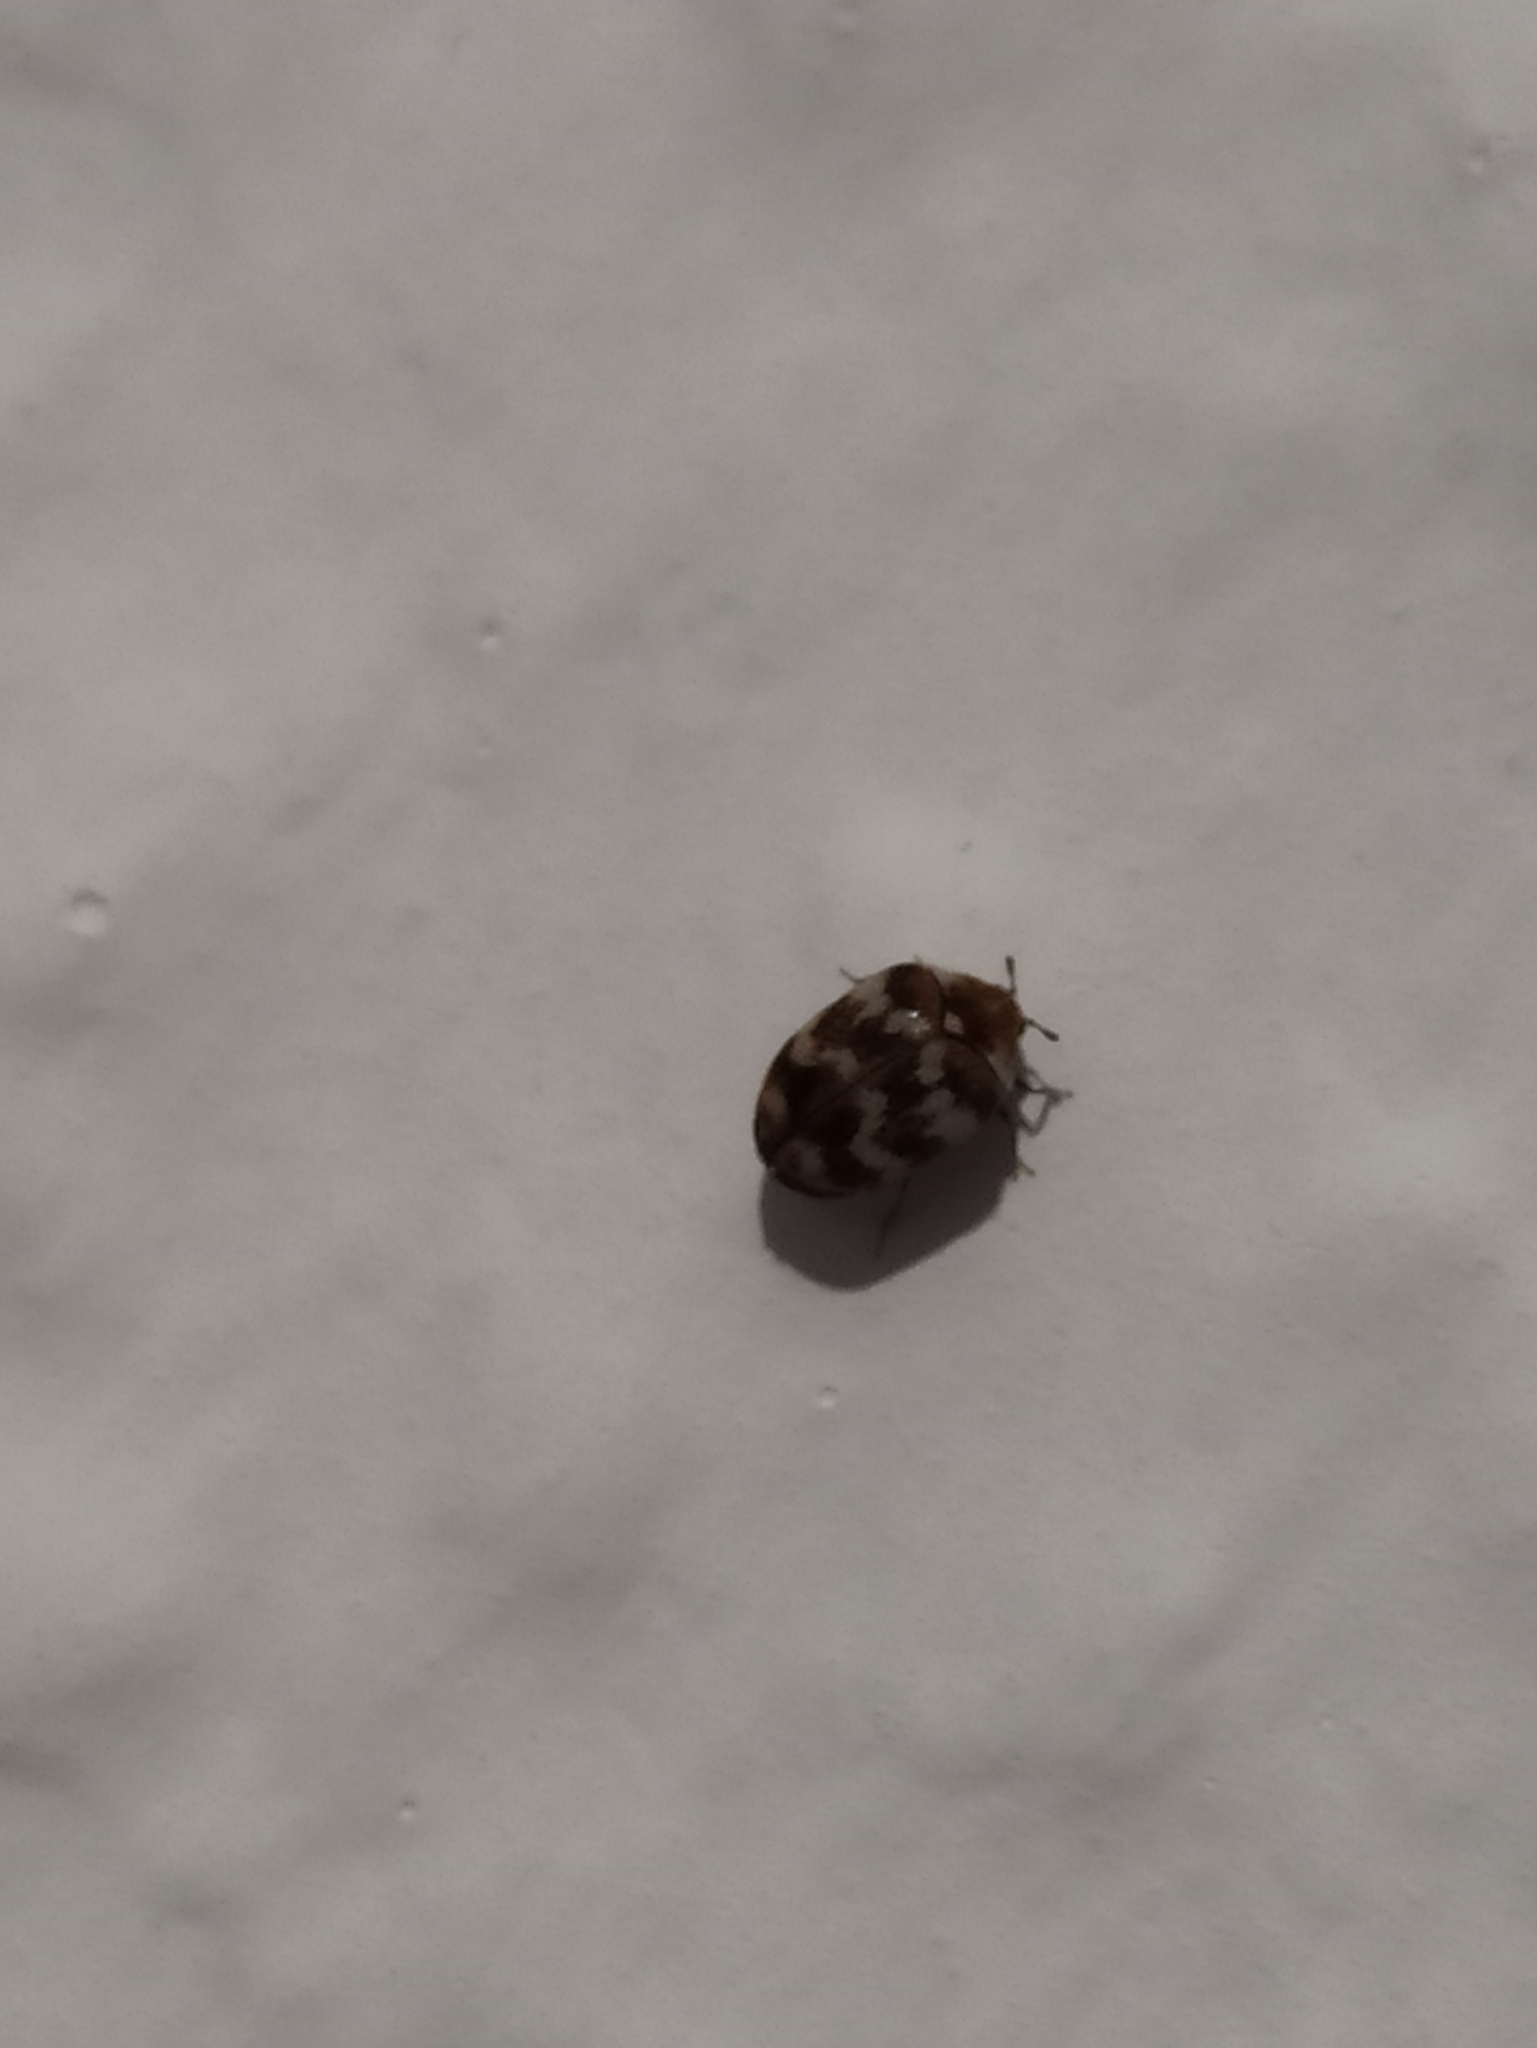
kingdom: Animalia
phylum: Arthropoda
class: Insecta
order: Coleoptera
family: Dermestidae
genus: Anthrenus
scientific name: Anthrenus verbasci
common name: Varied carpet beetle
